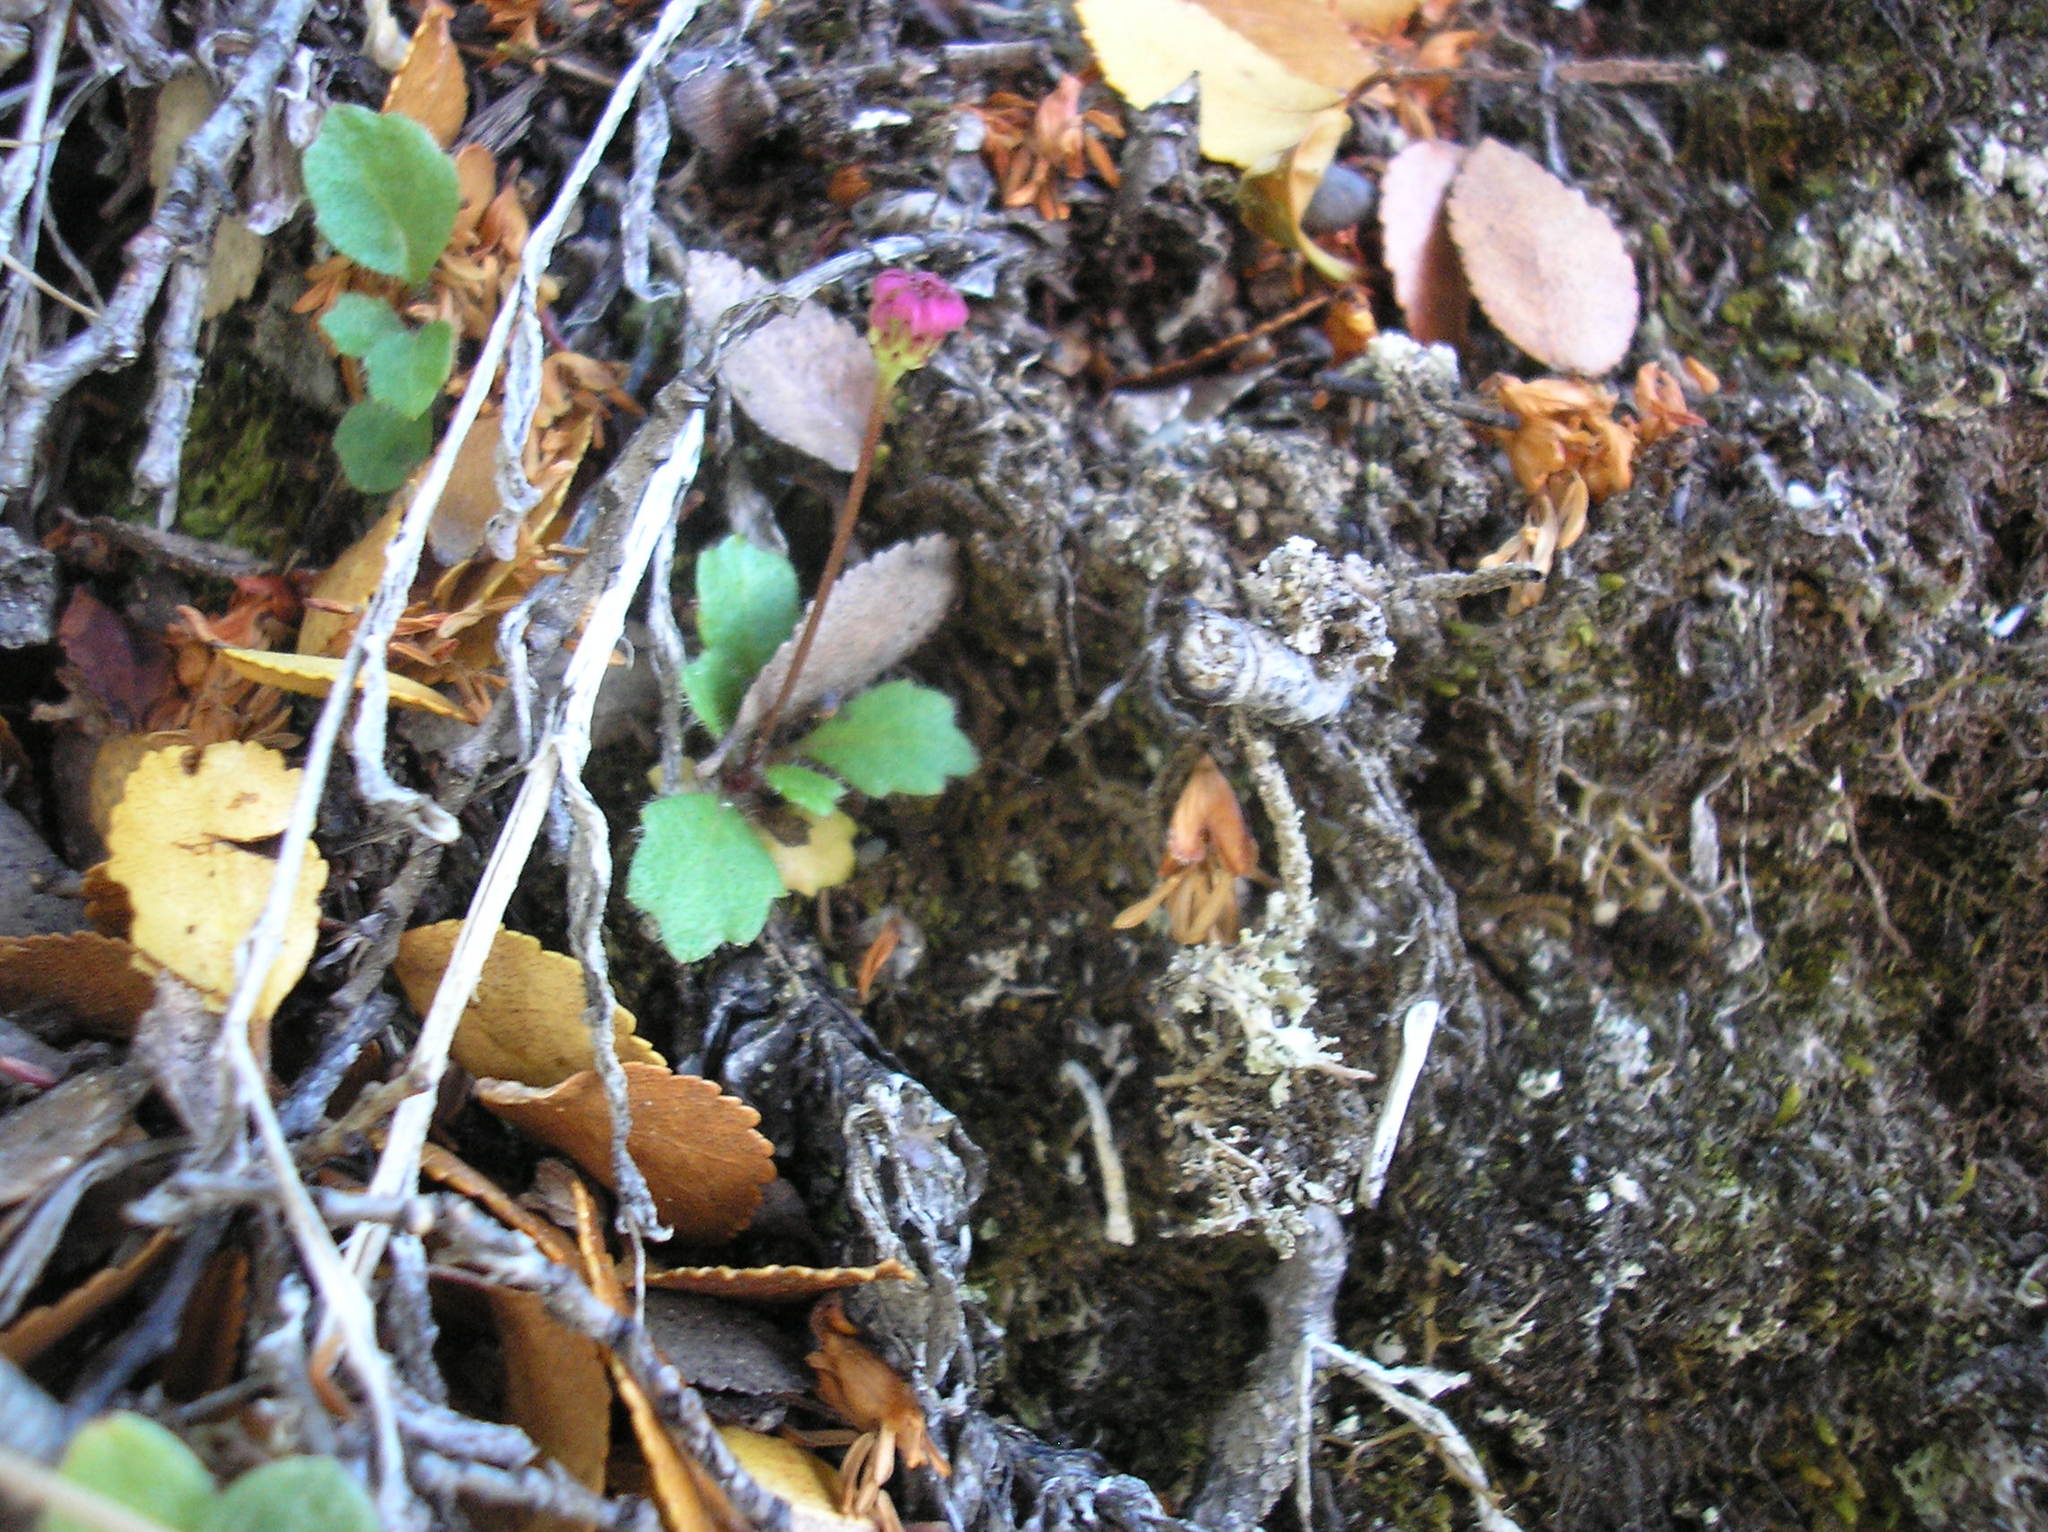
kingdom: Plantae
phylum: Tracheophyta
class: Magnoliopsida
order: Asterales
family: Asteraceae
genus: Lagenophora
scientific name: Lagenophora hariotii
